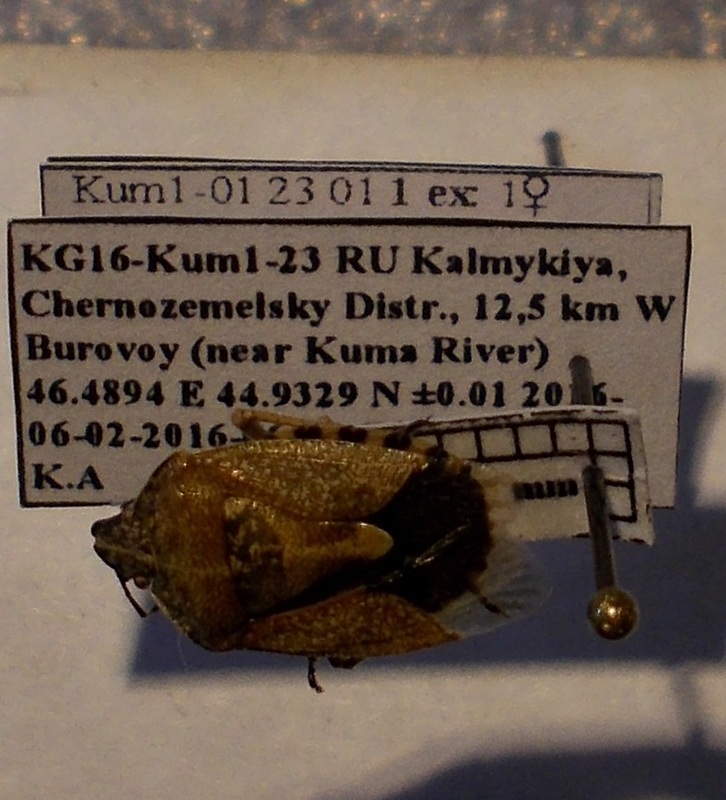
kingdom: Animalia
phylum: Arthropoda
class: Insecta
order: Hemiptera
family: Pentatomidae
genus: Dolycoris
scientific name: Dolycoris baccarum
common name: Sloe bug
